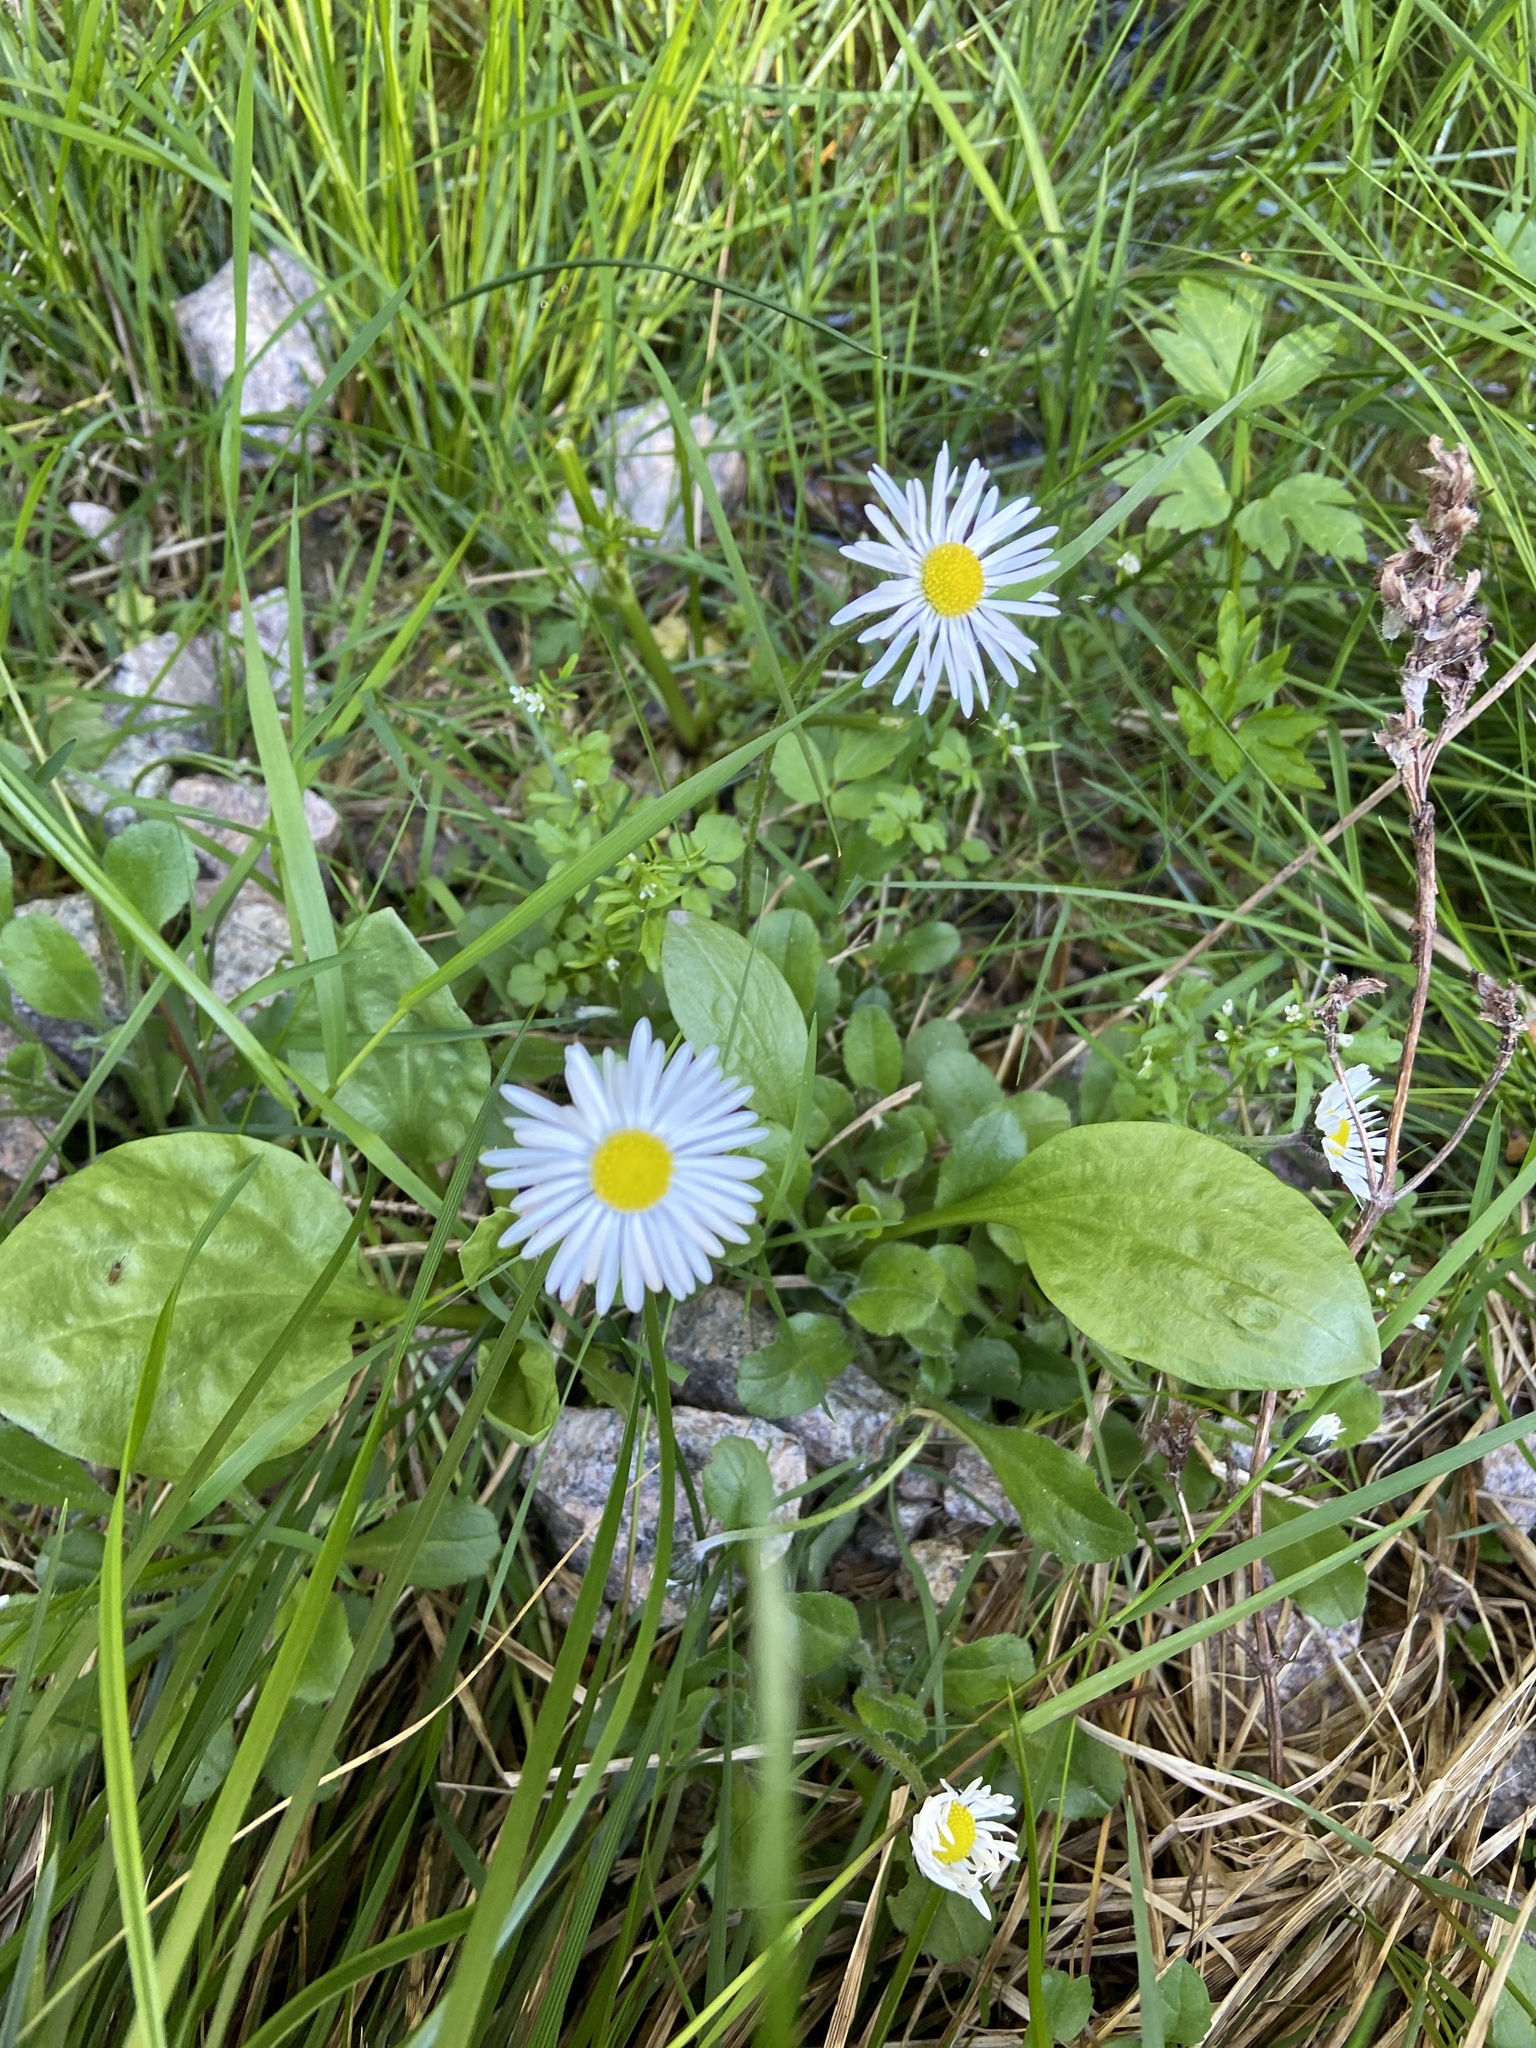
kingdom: Plantae
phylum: Tracheophyta
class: Magnoliopsida
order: Asterales
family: Asteraceae
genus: Bellis
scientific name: Bellis perennis
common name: Lawndaisy
